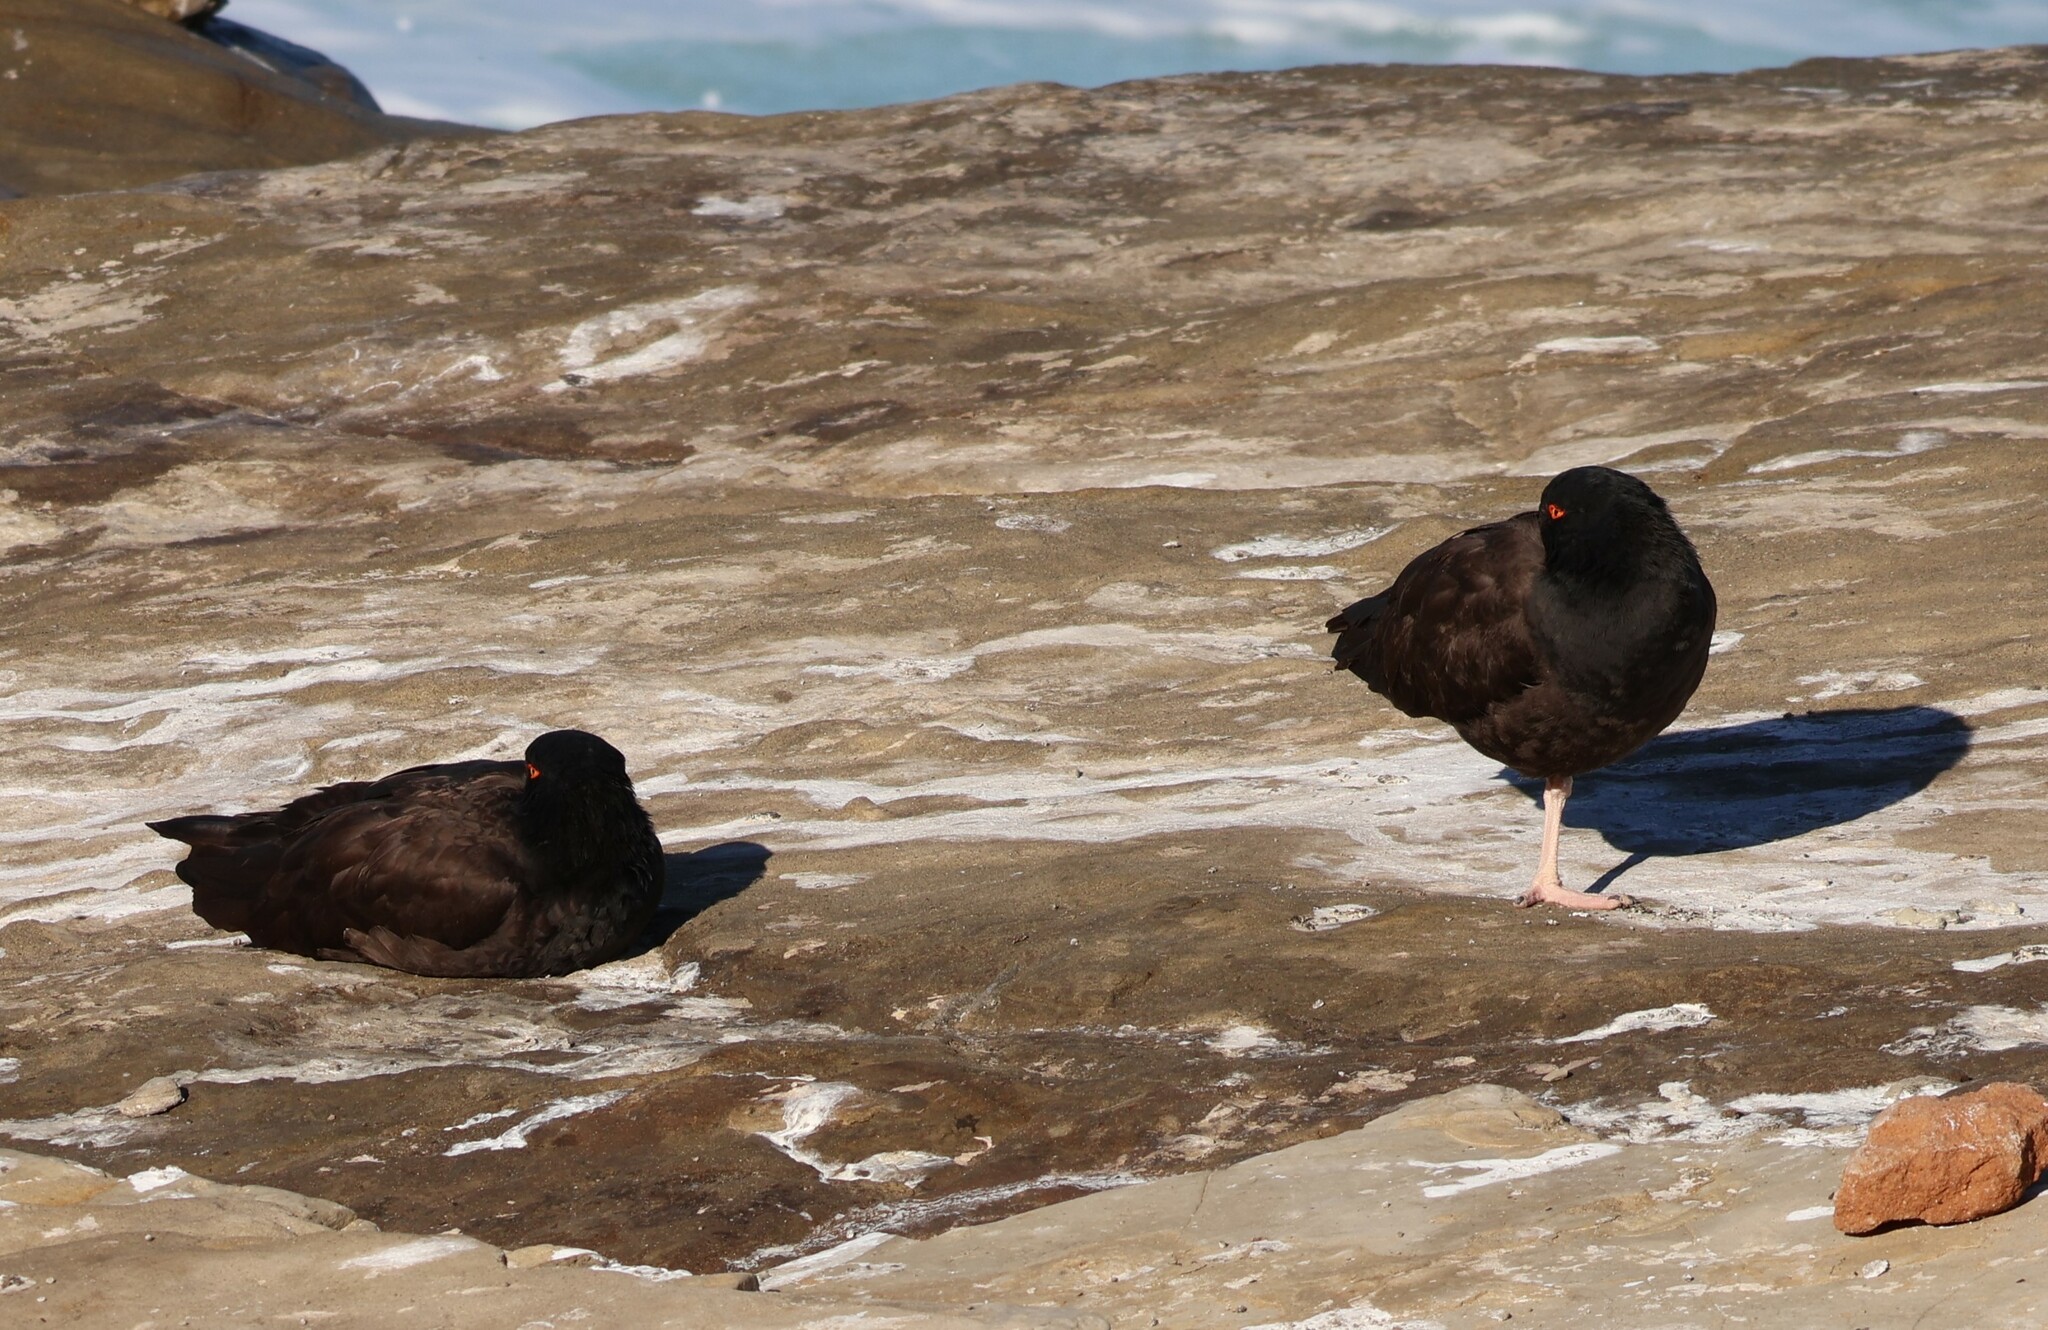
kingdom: Animalia
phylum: Chordata
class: Aves
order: Charadriiformes
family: Haematopodidae
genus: Haematopus
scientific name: Haematopus bachmani
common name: Black oystercatcher
